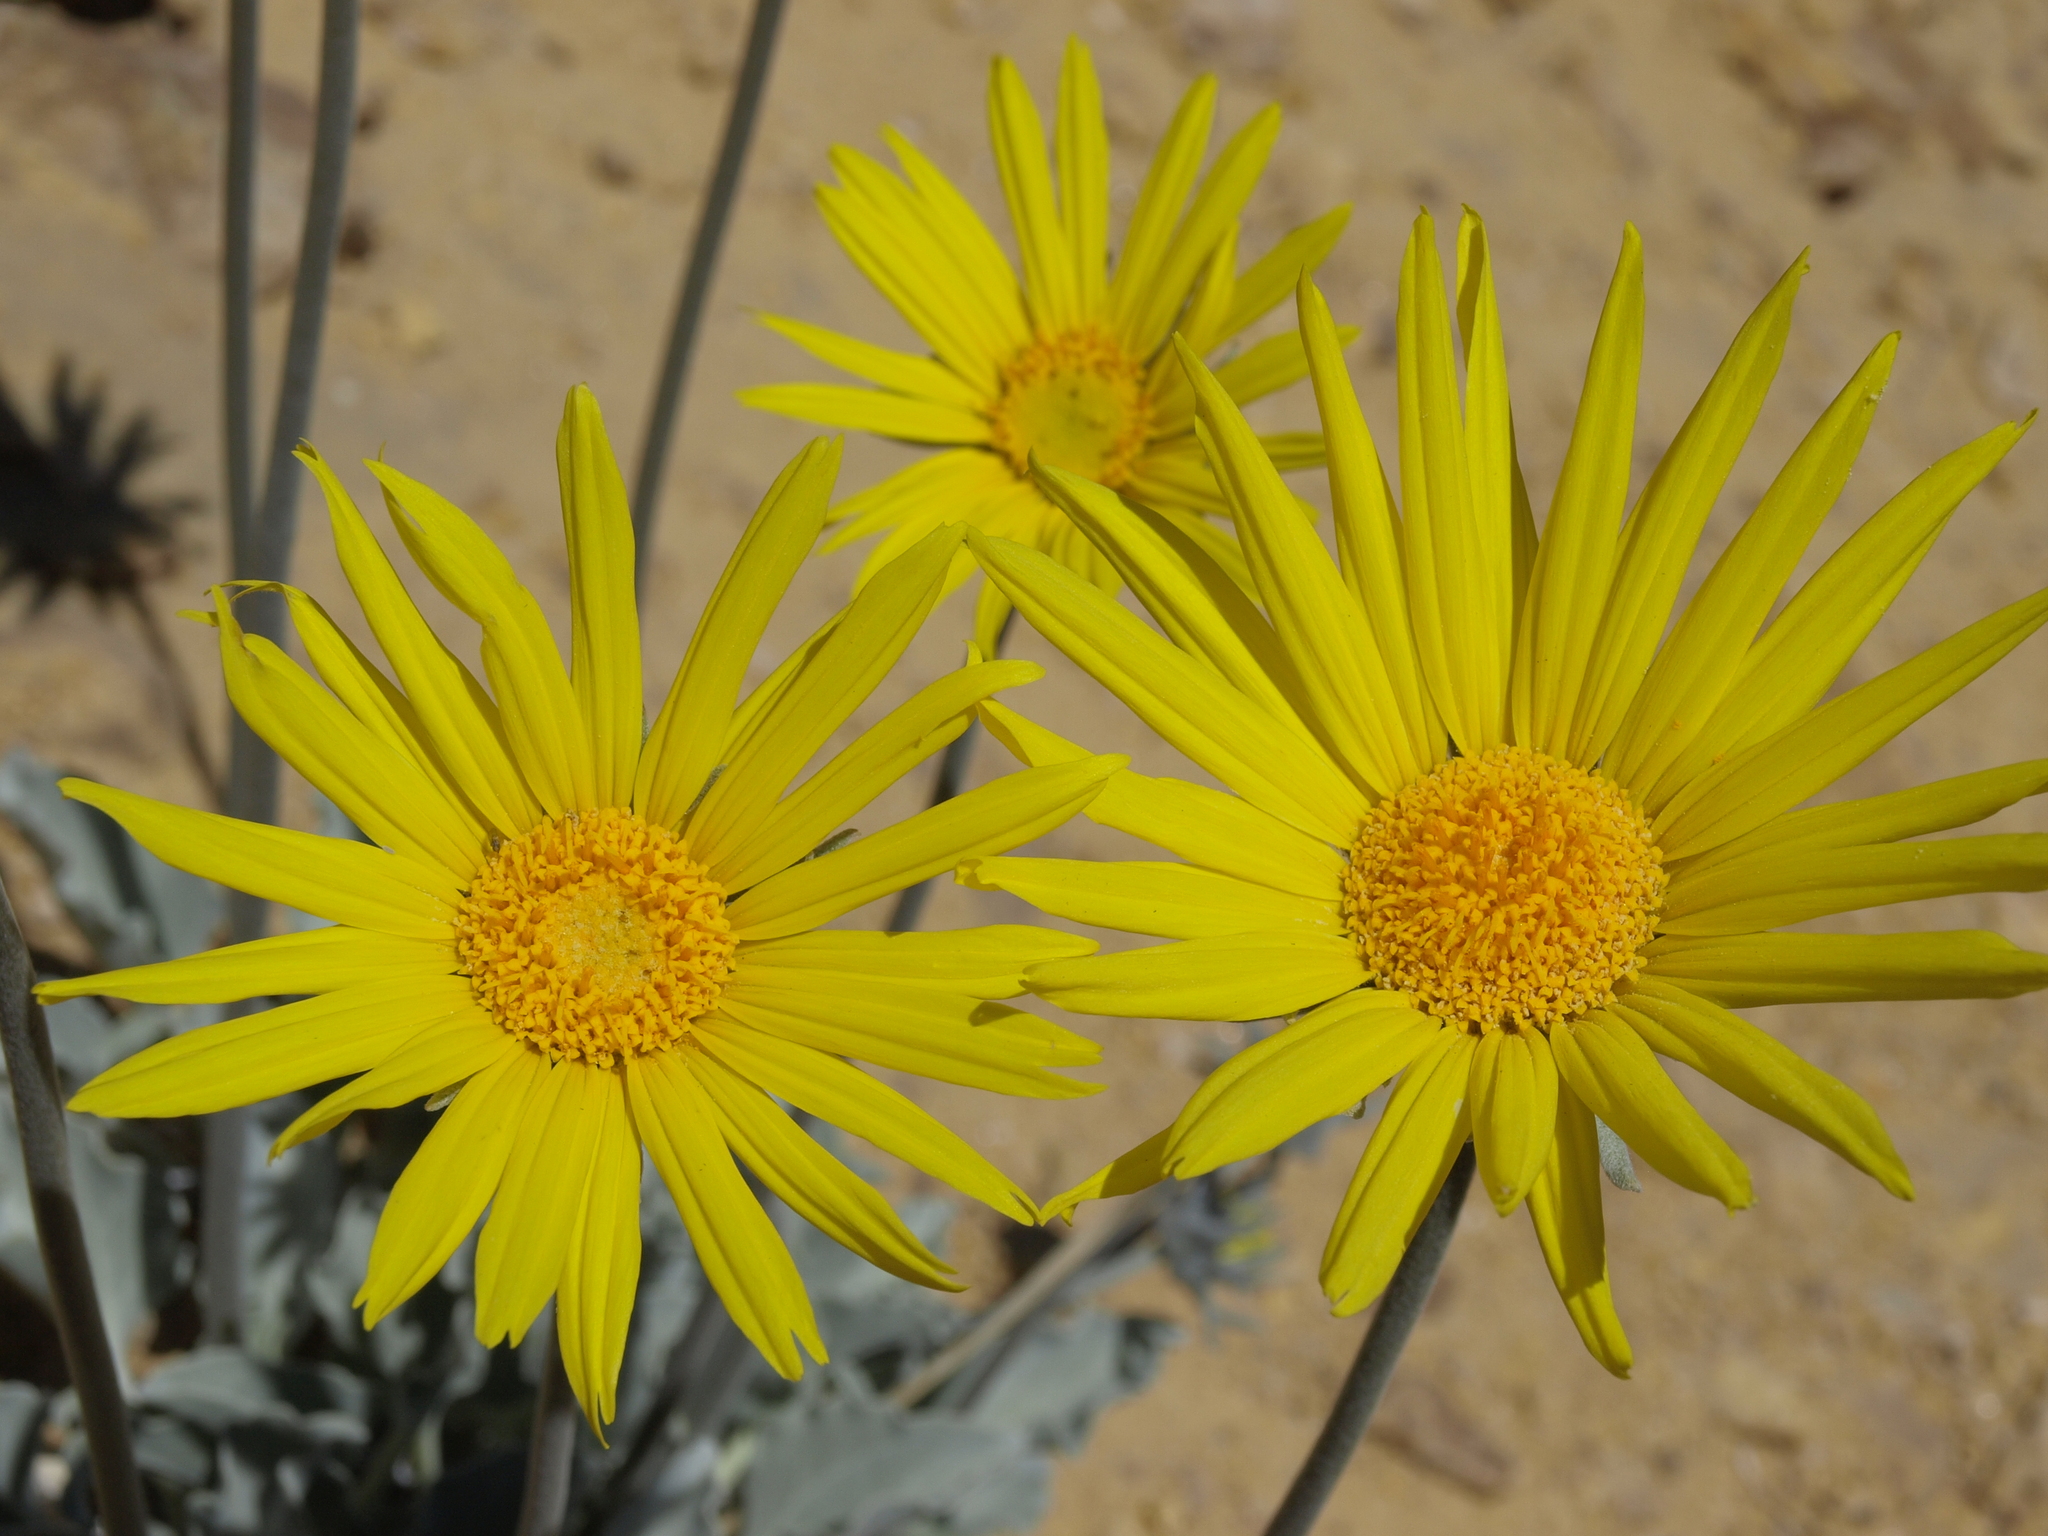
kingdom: Plantae
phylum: Tracheophyta
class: Magnoliopsida
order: Asterales
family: Asteraceae
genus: Enceliopsis
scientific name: Enceliopsis nudicaulis
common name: Naked-stem daisy
